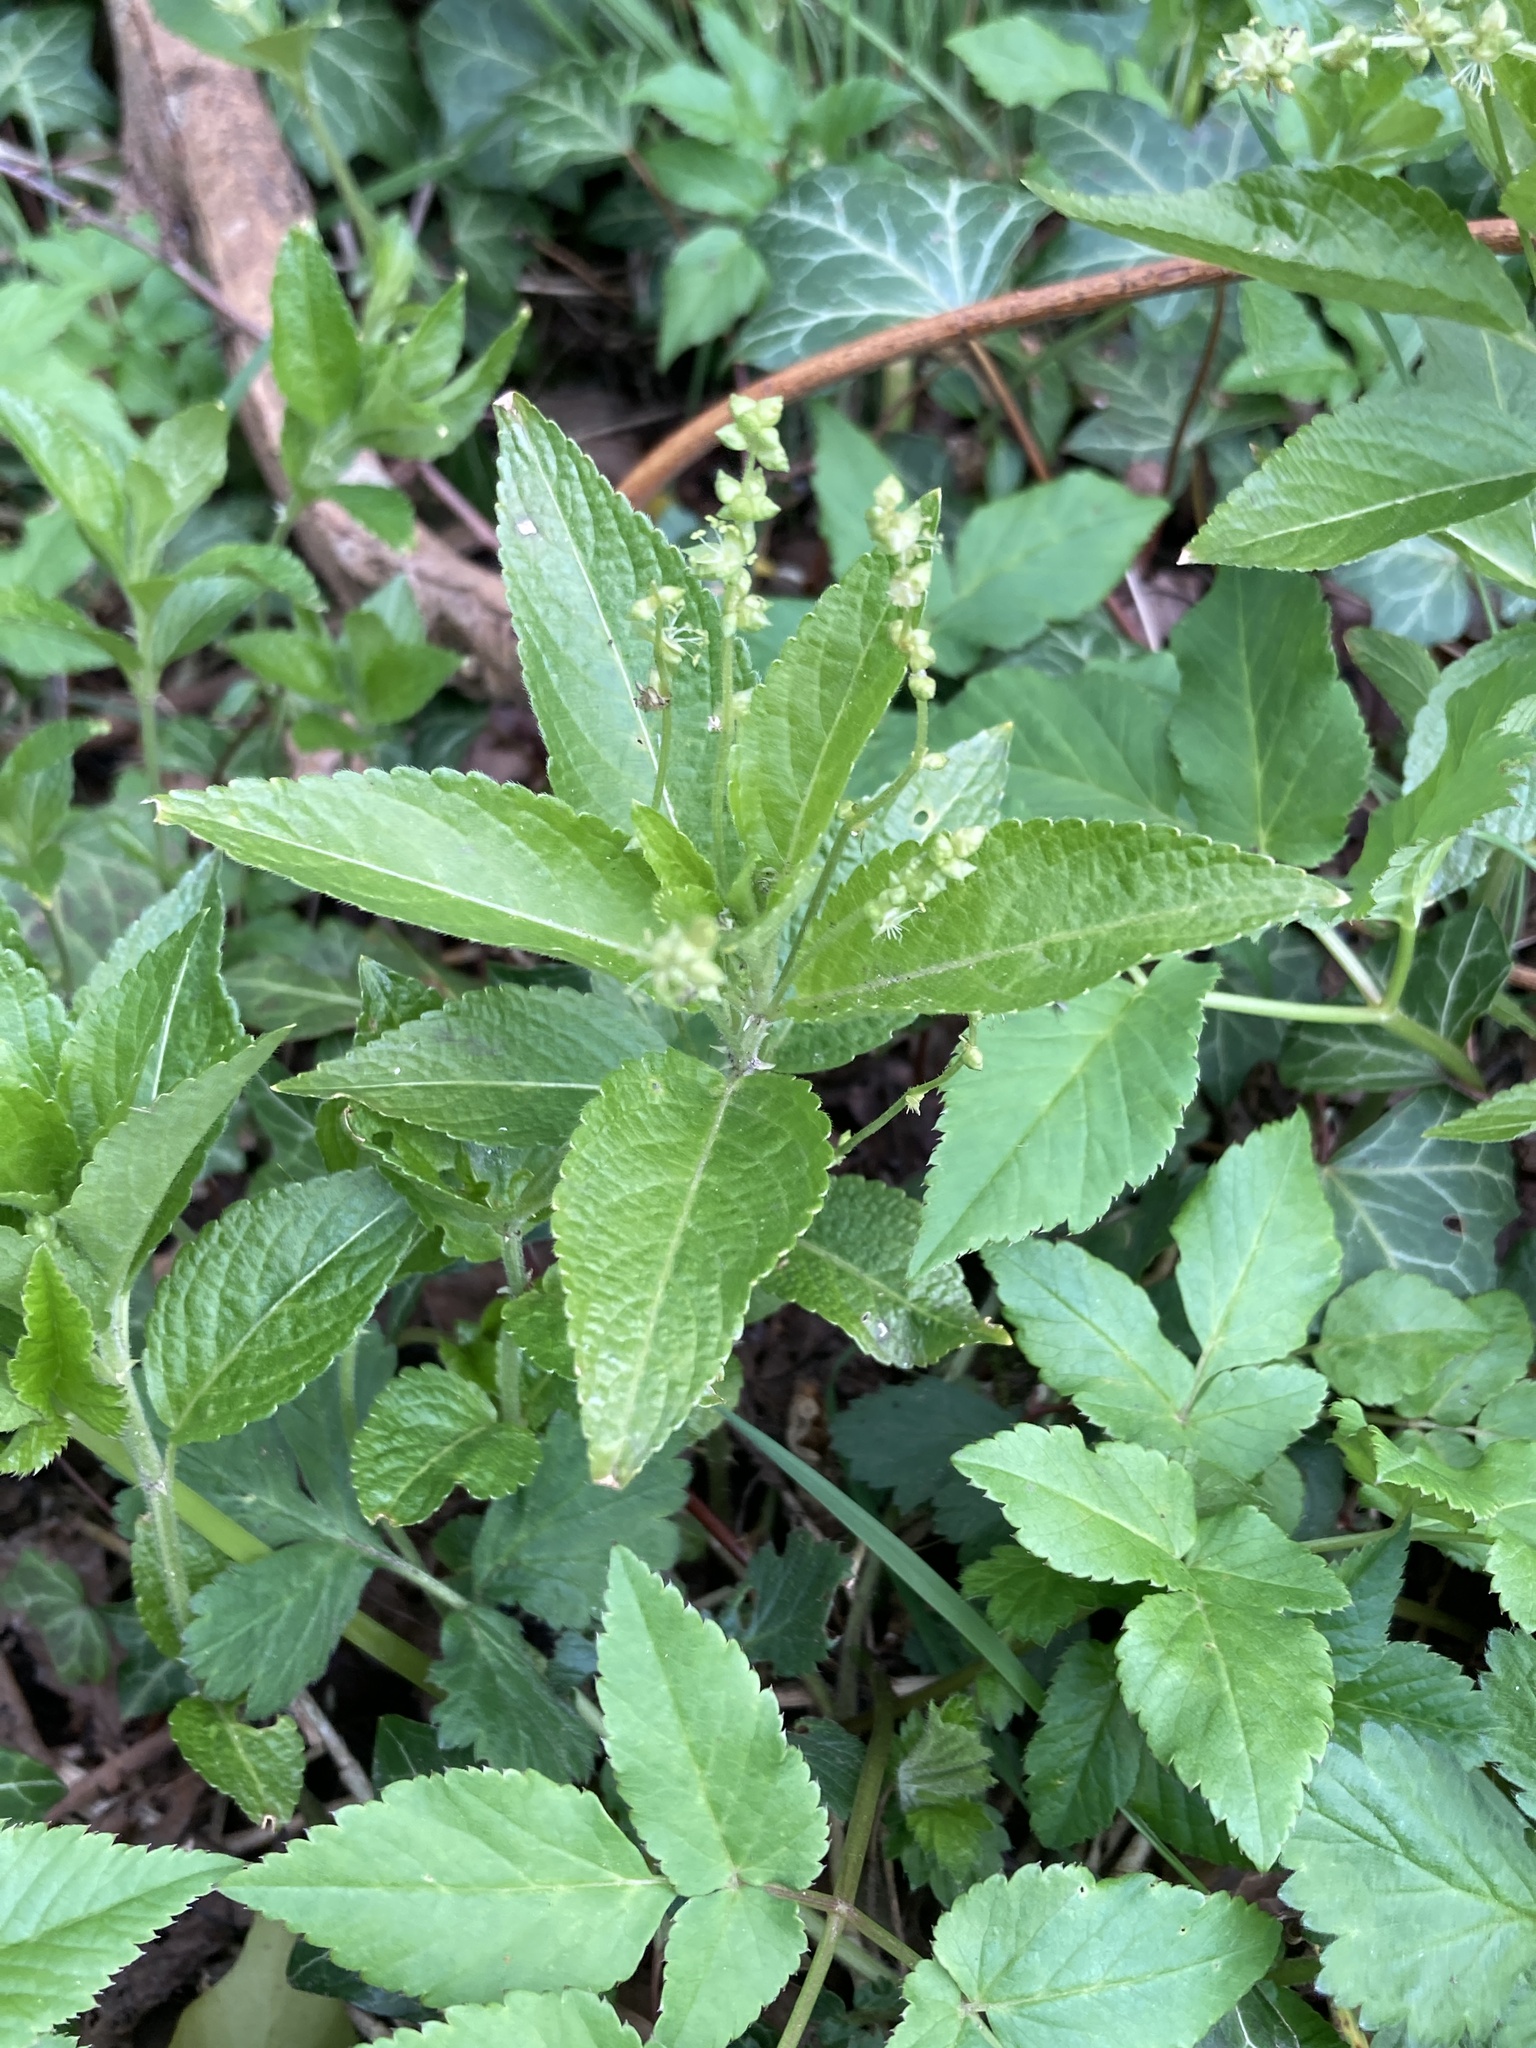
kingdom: Plantae
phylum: Tracheophyta
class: Magnoliopsida
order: Malpighiales
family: Euphorbiaceae
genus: Mercurialis
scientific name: Mercurialis perennis
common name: Dog mercury
